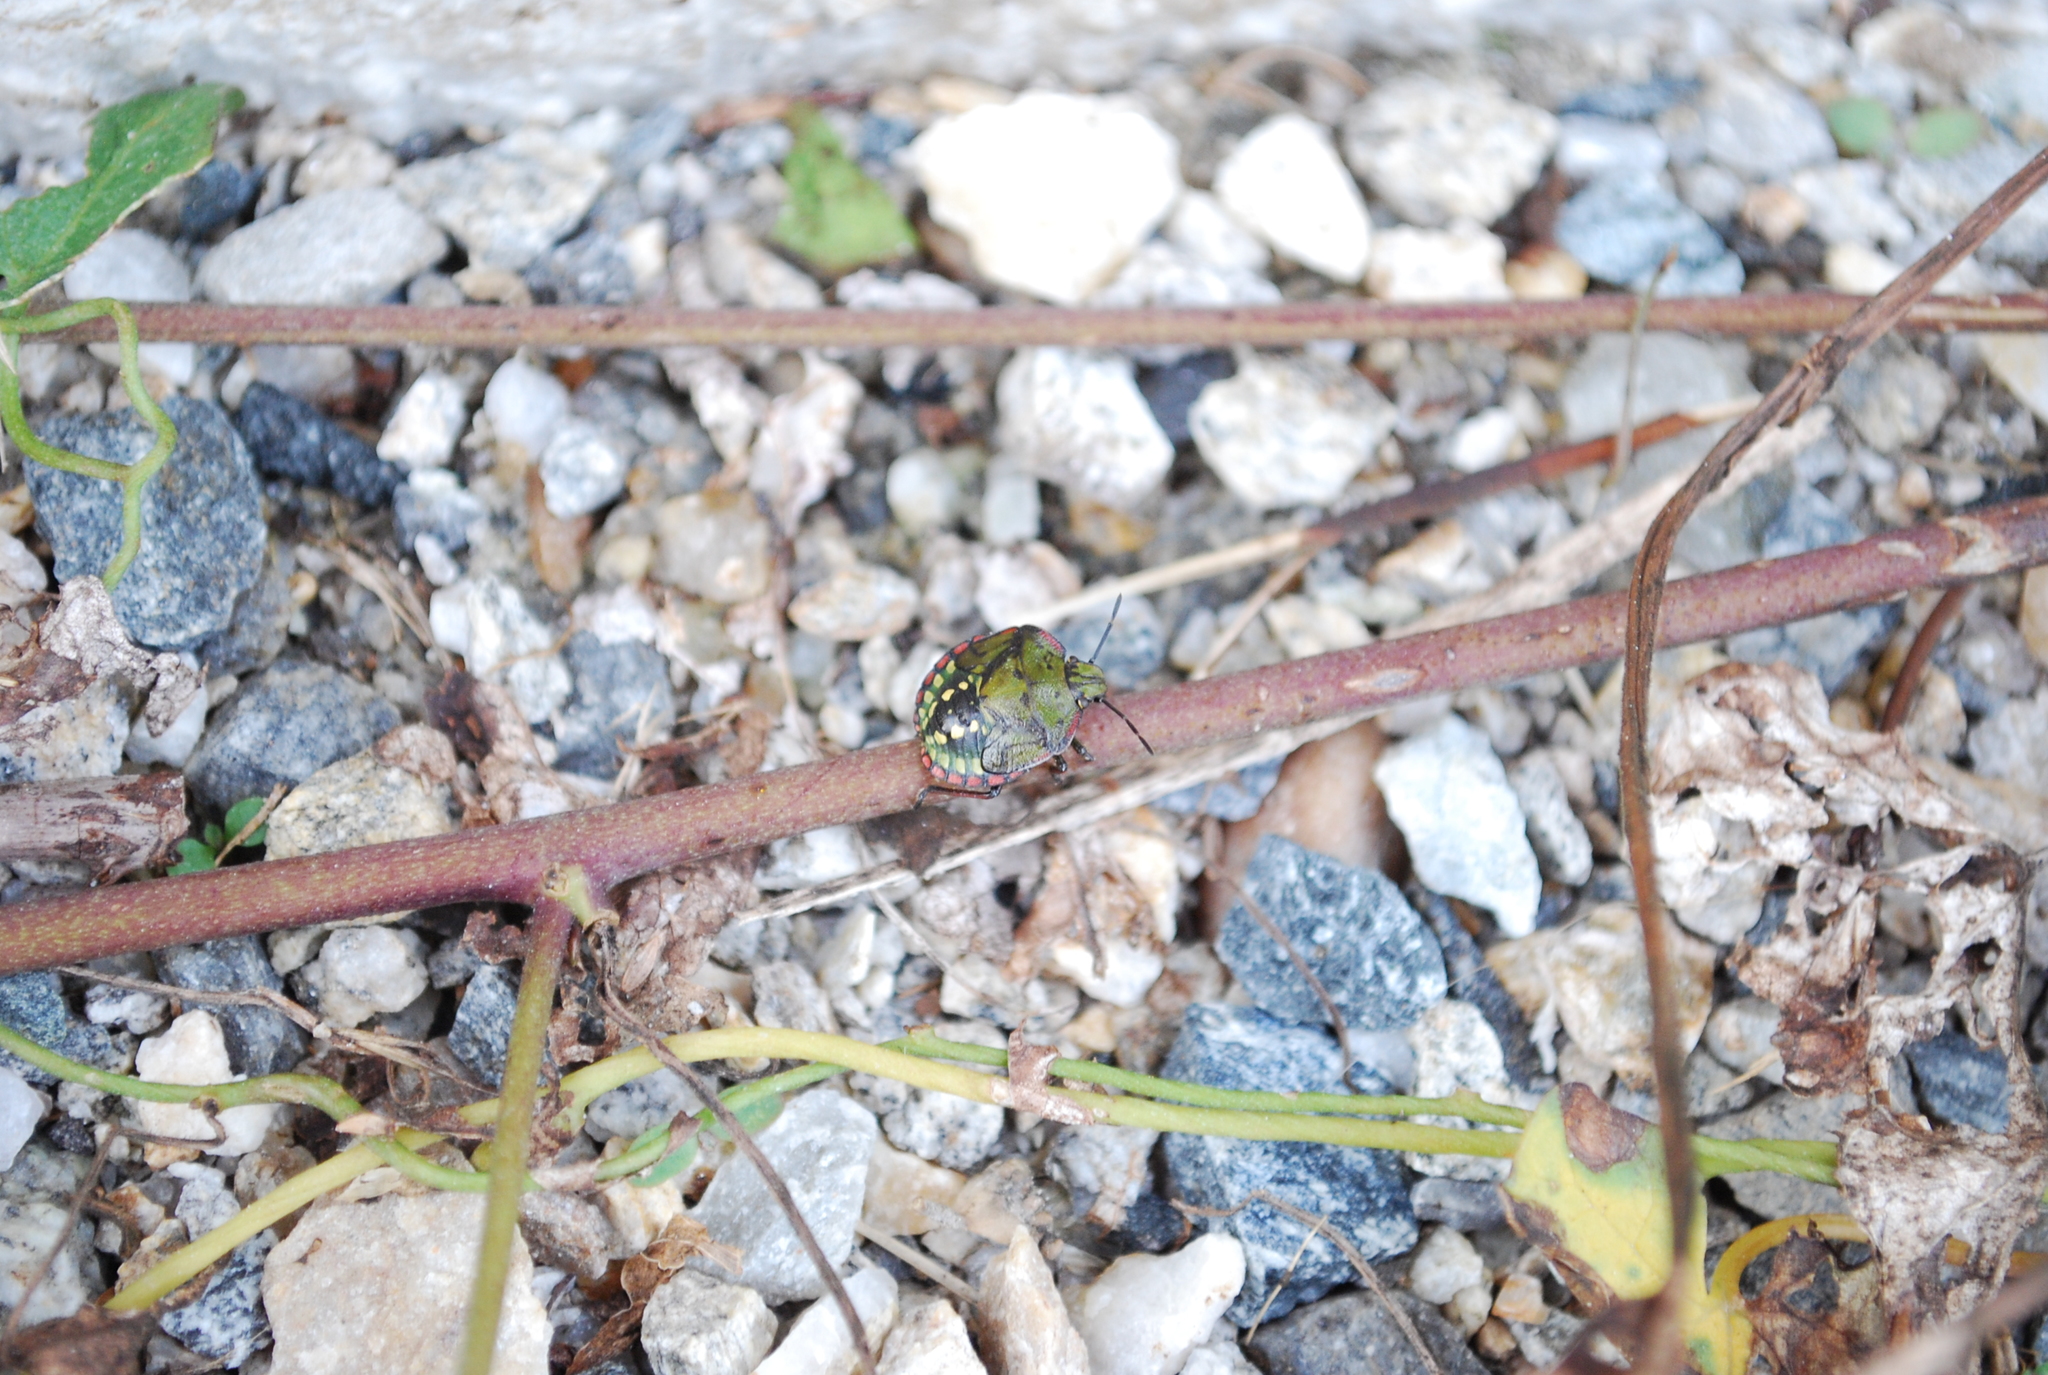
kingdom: Animalia
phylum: Arthropoda
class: Insecta
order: Hemiptera
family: Pentatomidae
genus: Nezara
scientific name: Nezara viridula
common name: Southern green stink bug
